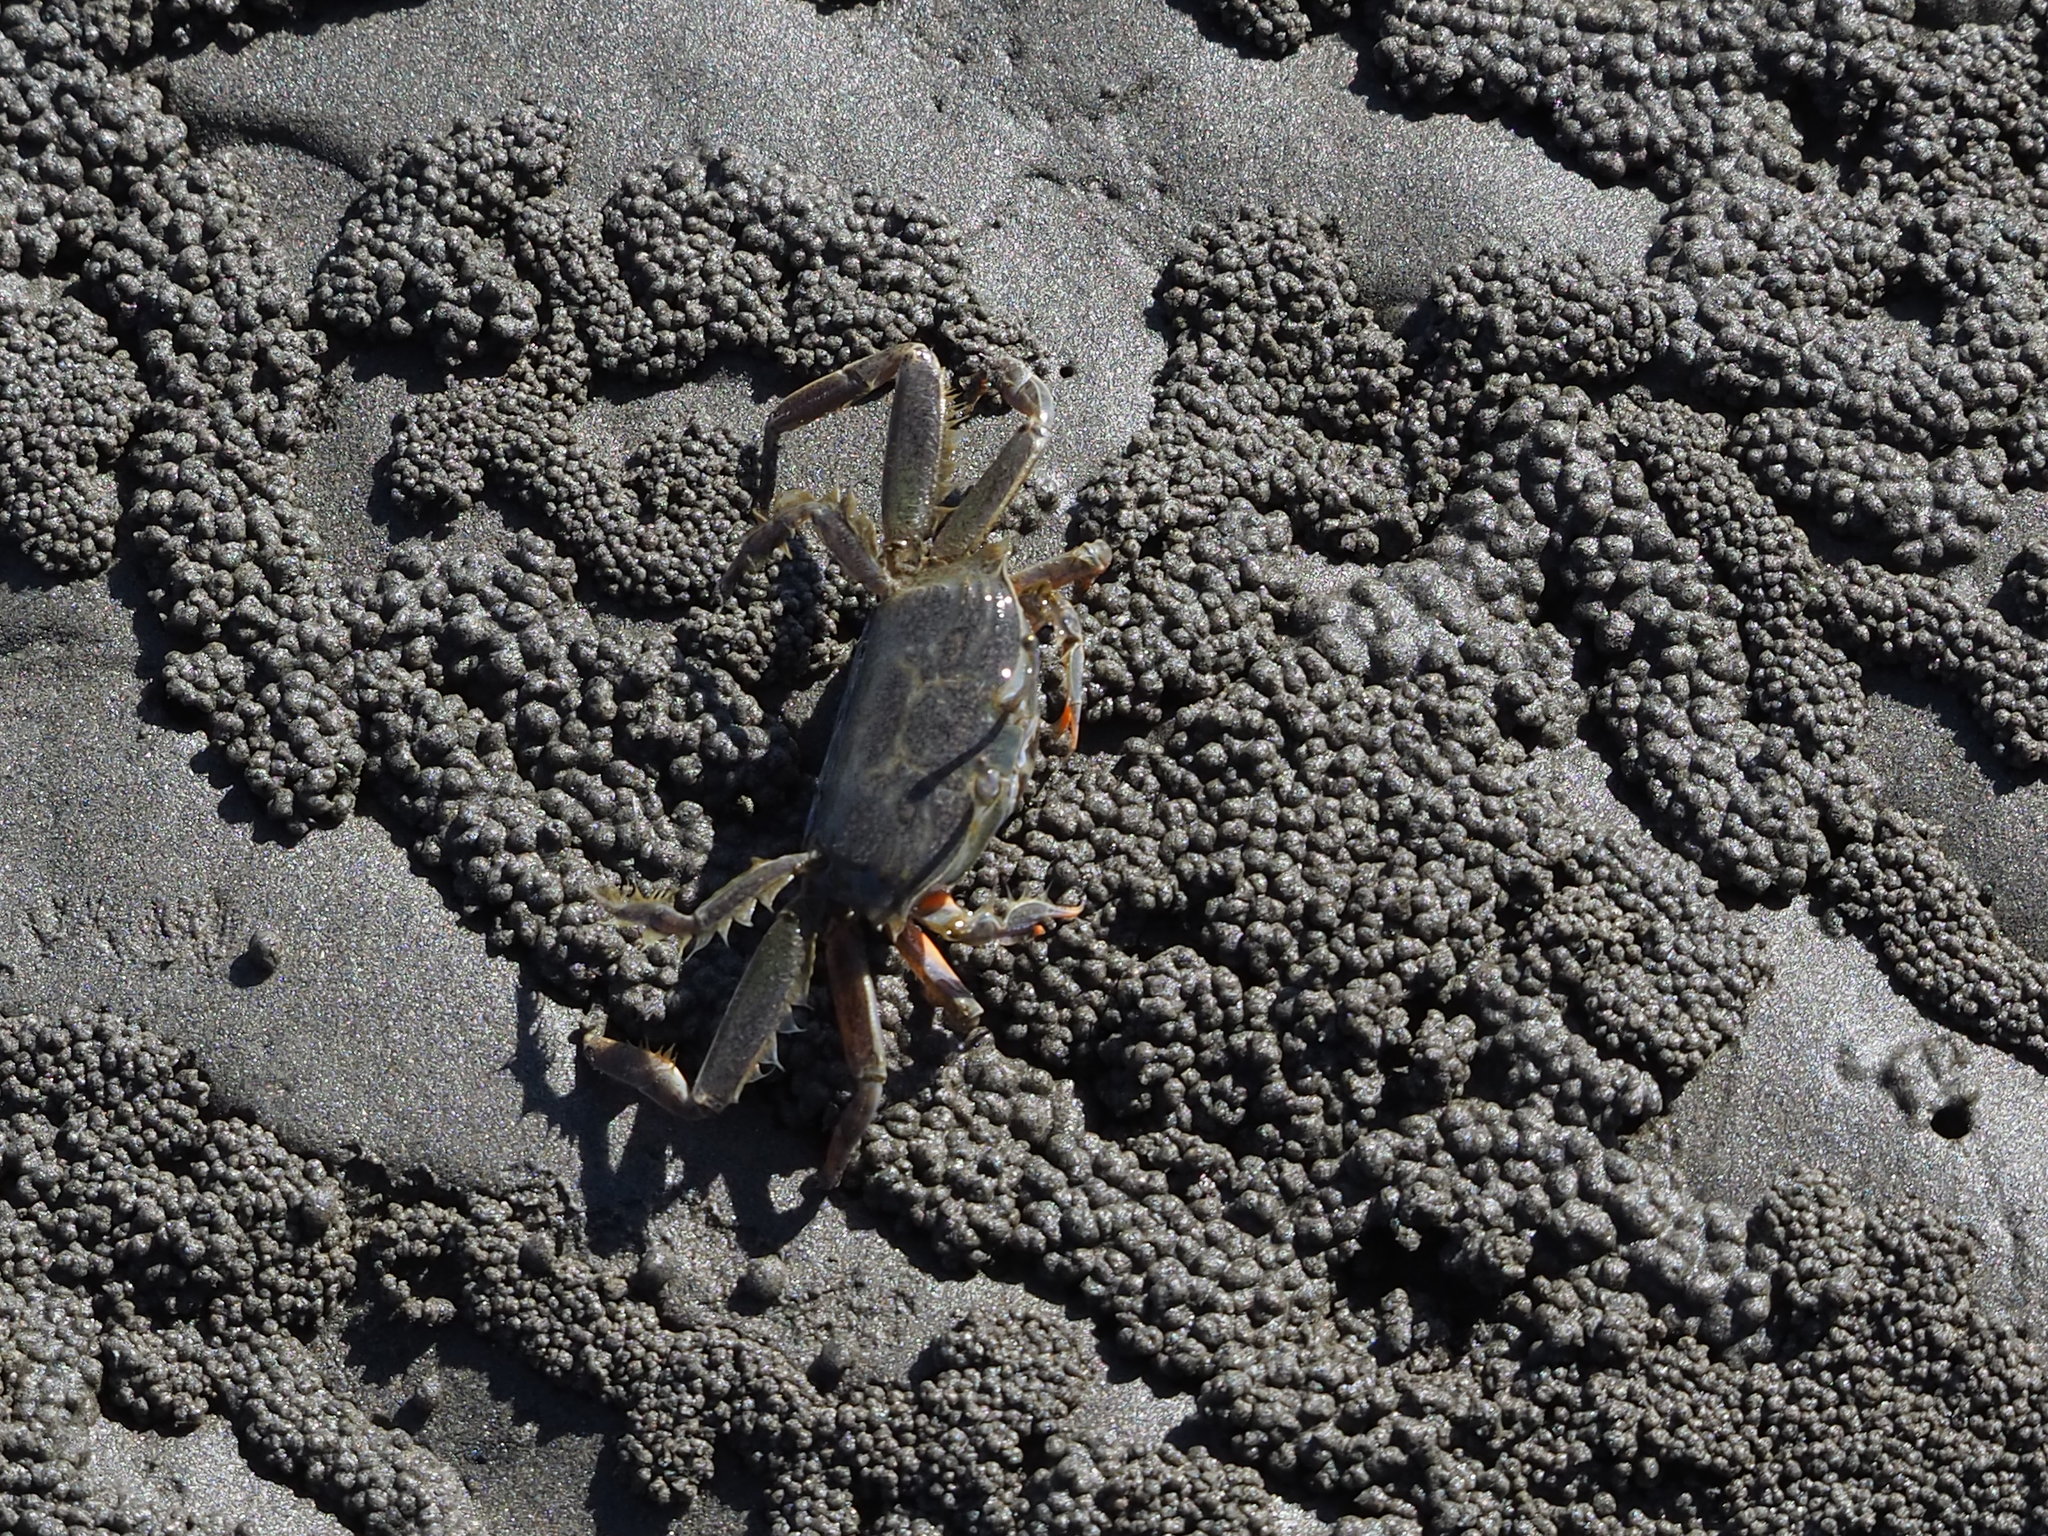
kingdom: Animalia
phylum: Arthropoda
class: Malacostraca
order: Decapoda
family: Macrophthalmidae
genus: Macrophthalmus
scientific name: Macrophthalmus abbreviatus
